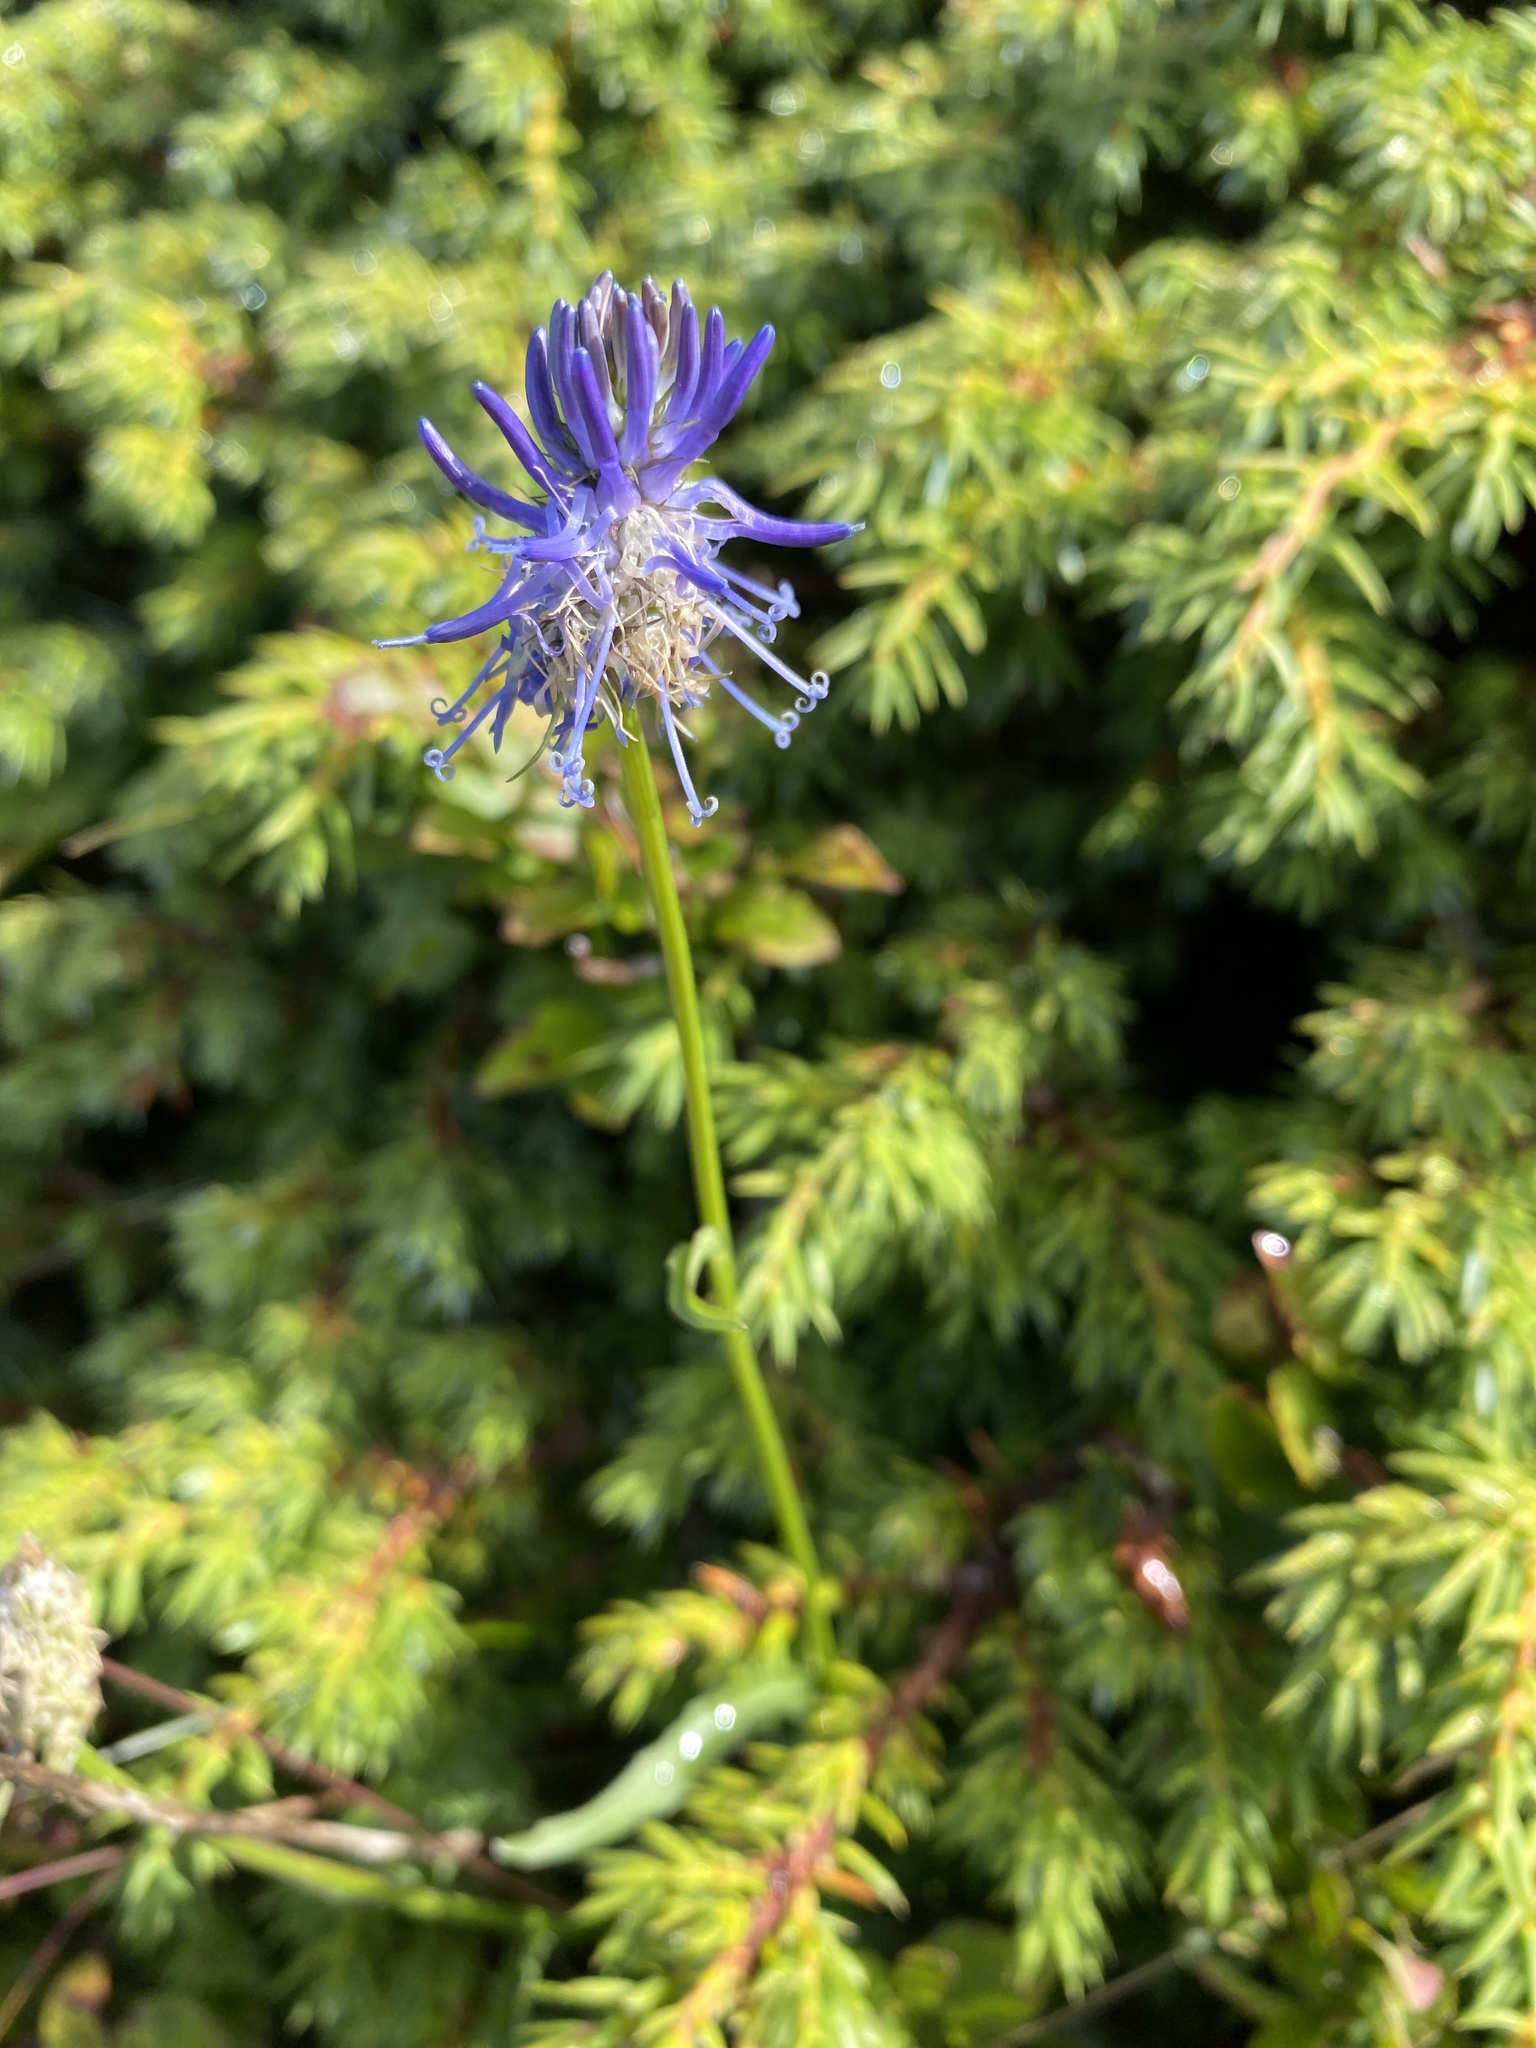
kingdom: Plantae
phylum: Tracheophyta
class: Magnoliopsida
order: Asterales
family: Campanulaceae
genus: Phyteuma
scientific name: Phyteuma betonicifolium
